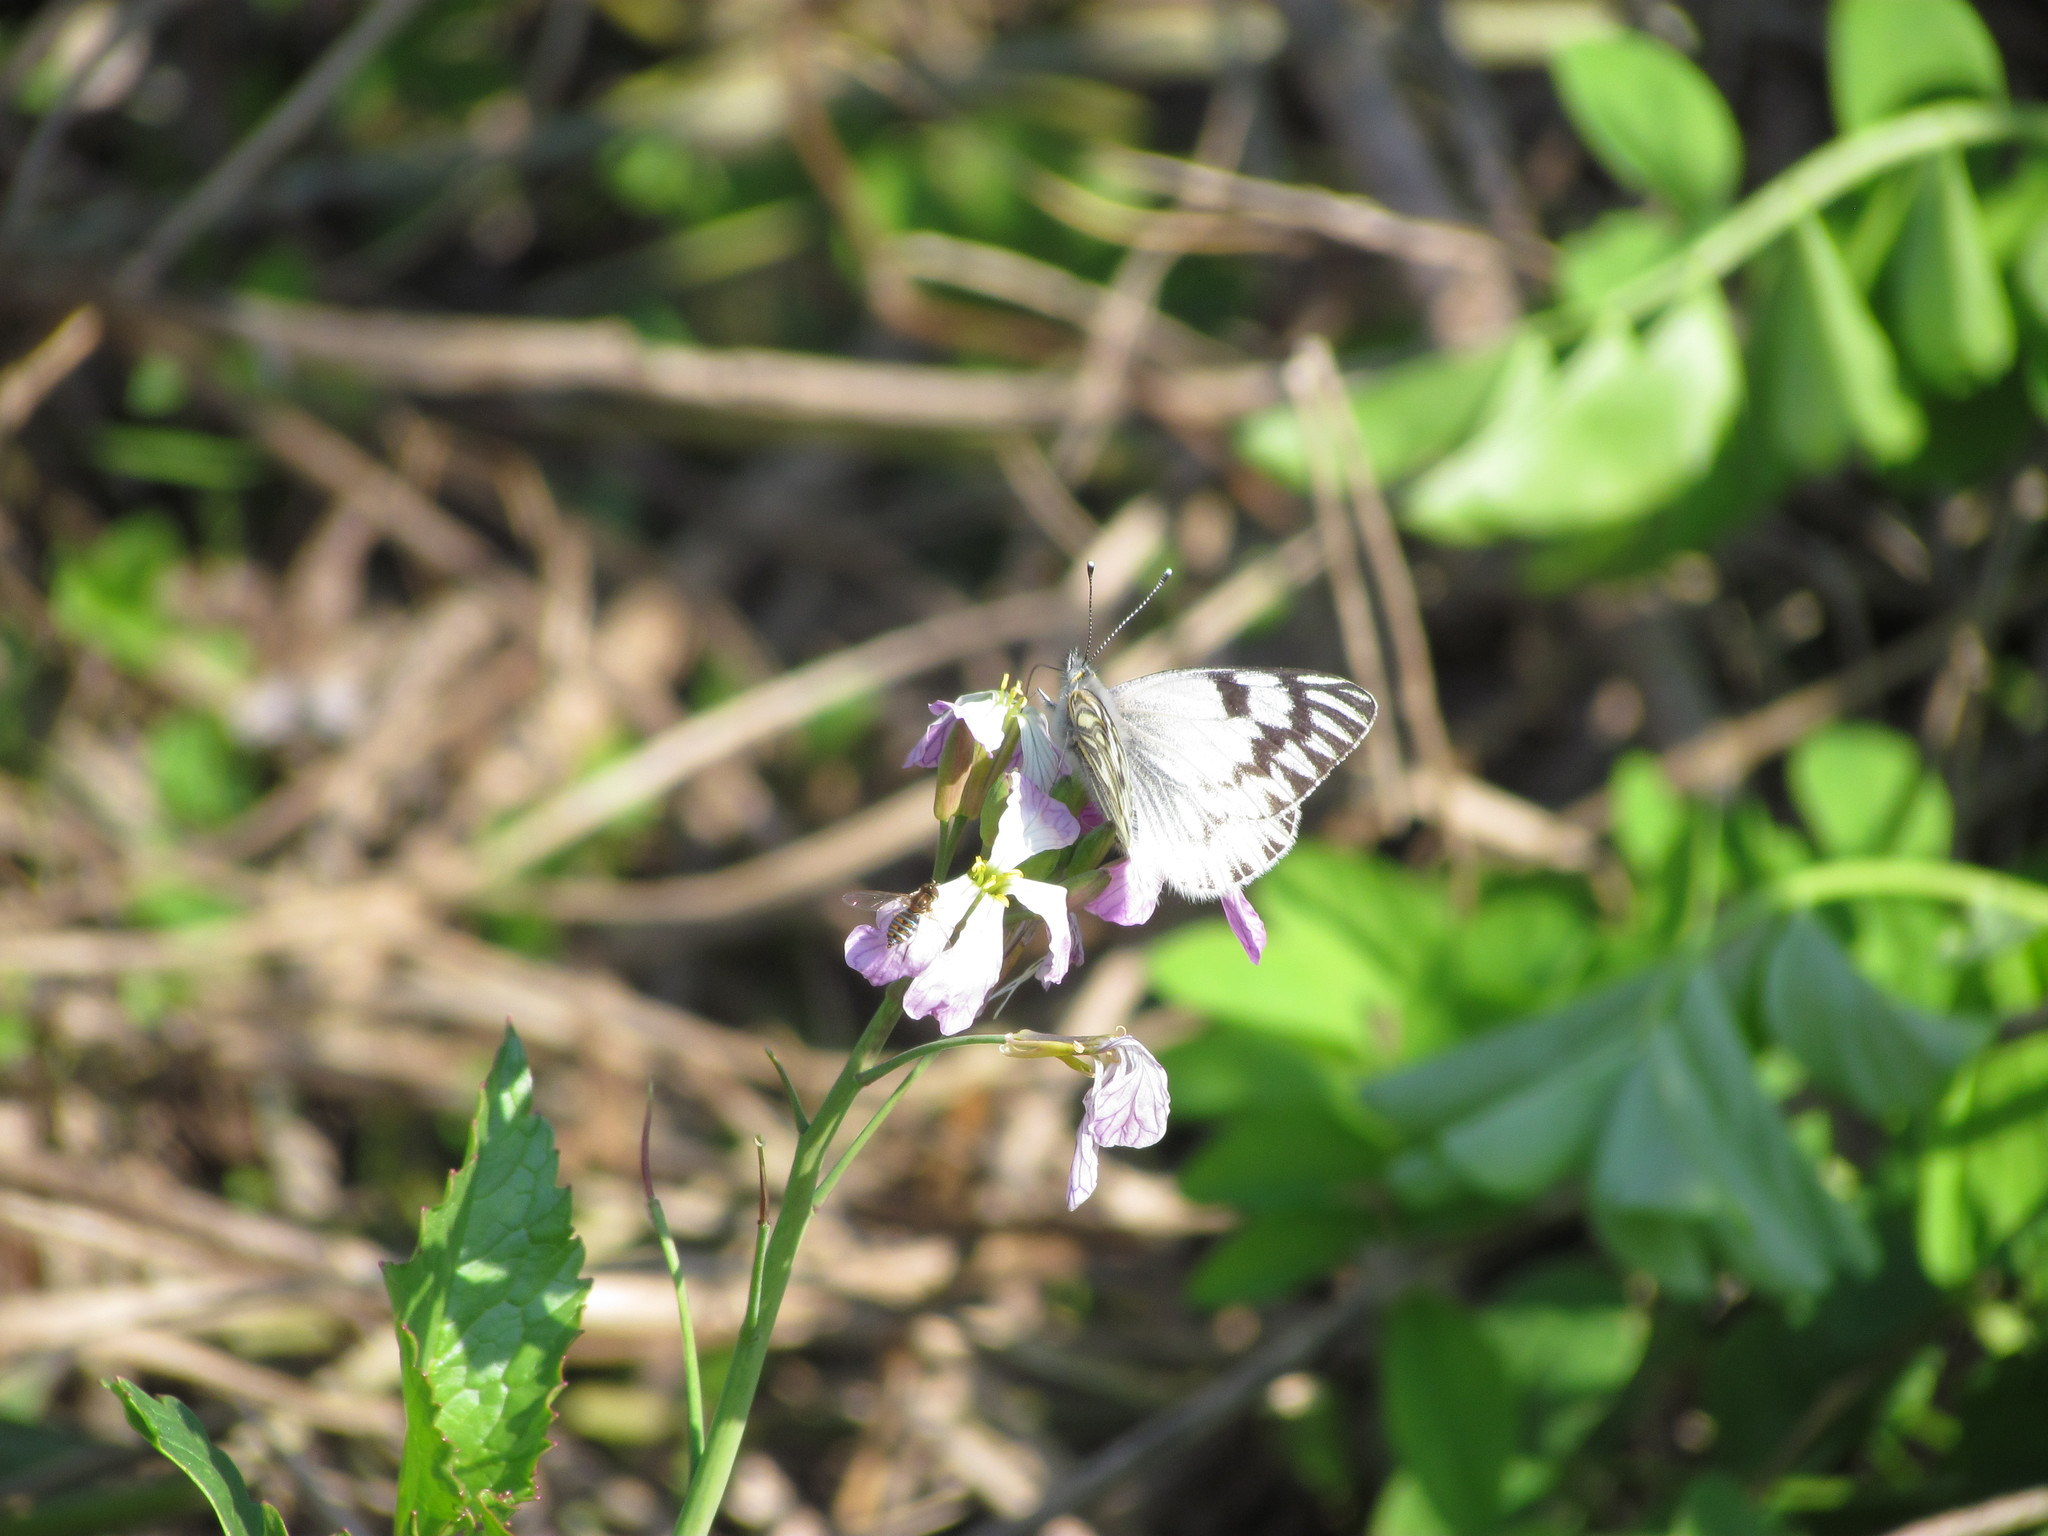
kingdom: Animalia
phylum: Arthropoda
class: Insecta
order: Lepidoptera
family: Pieridae
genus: Tatochila
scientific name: Tatochila mercedis
